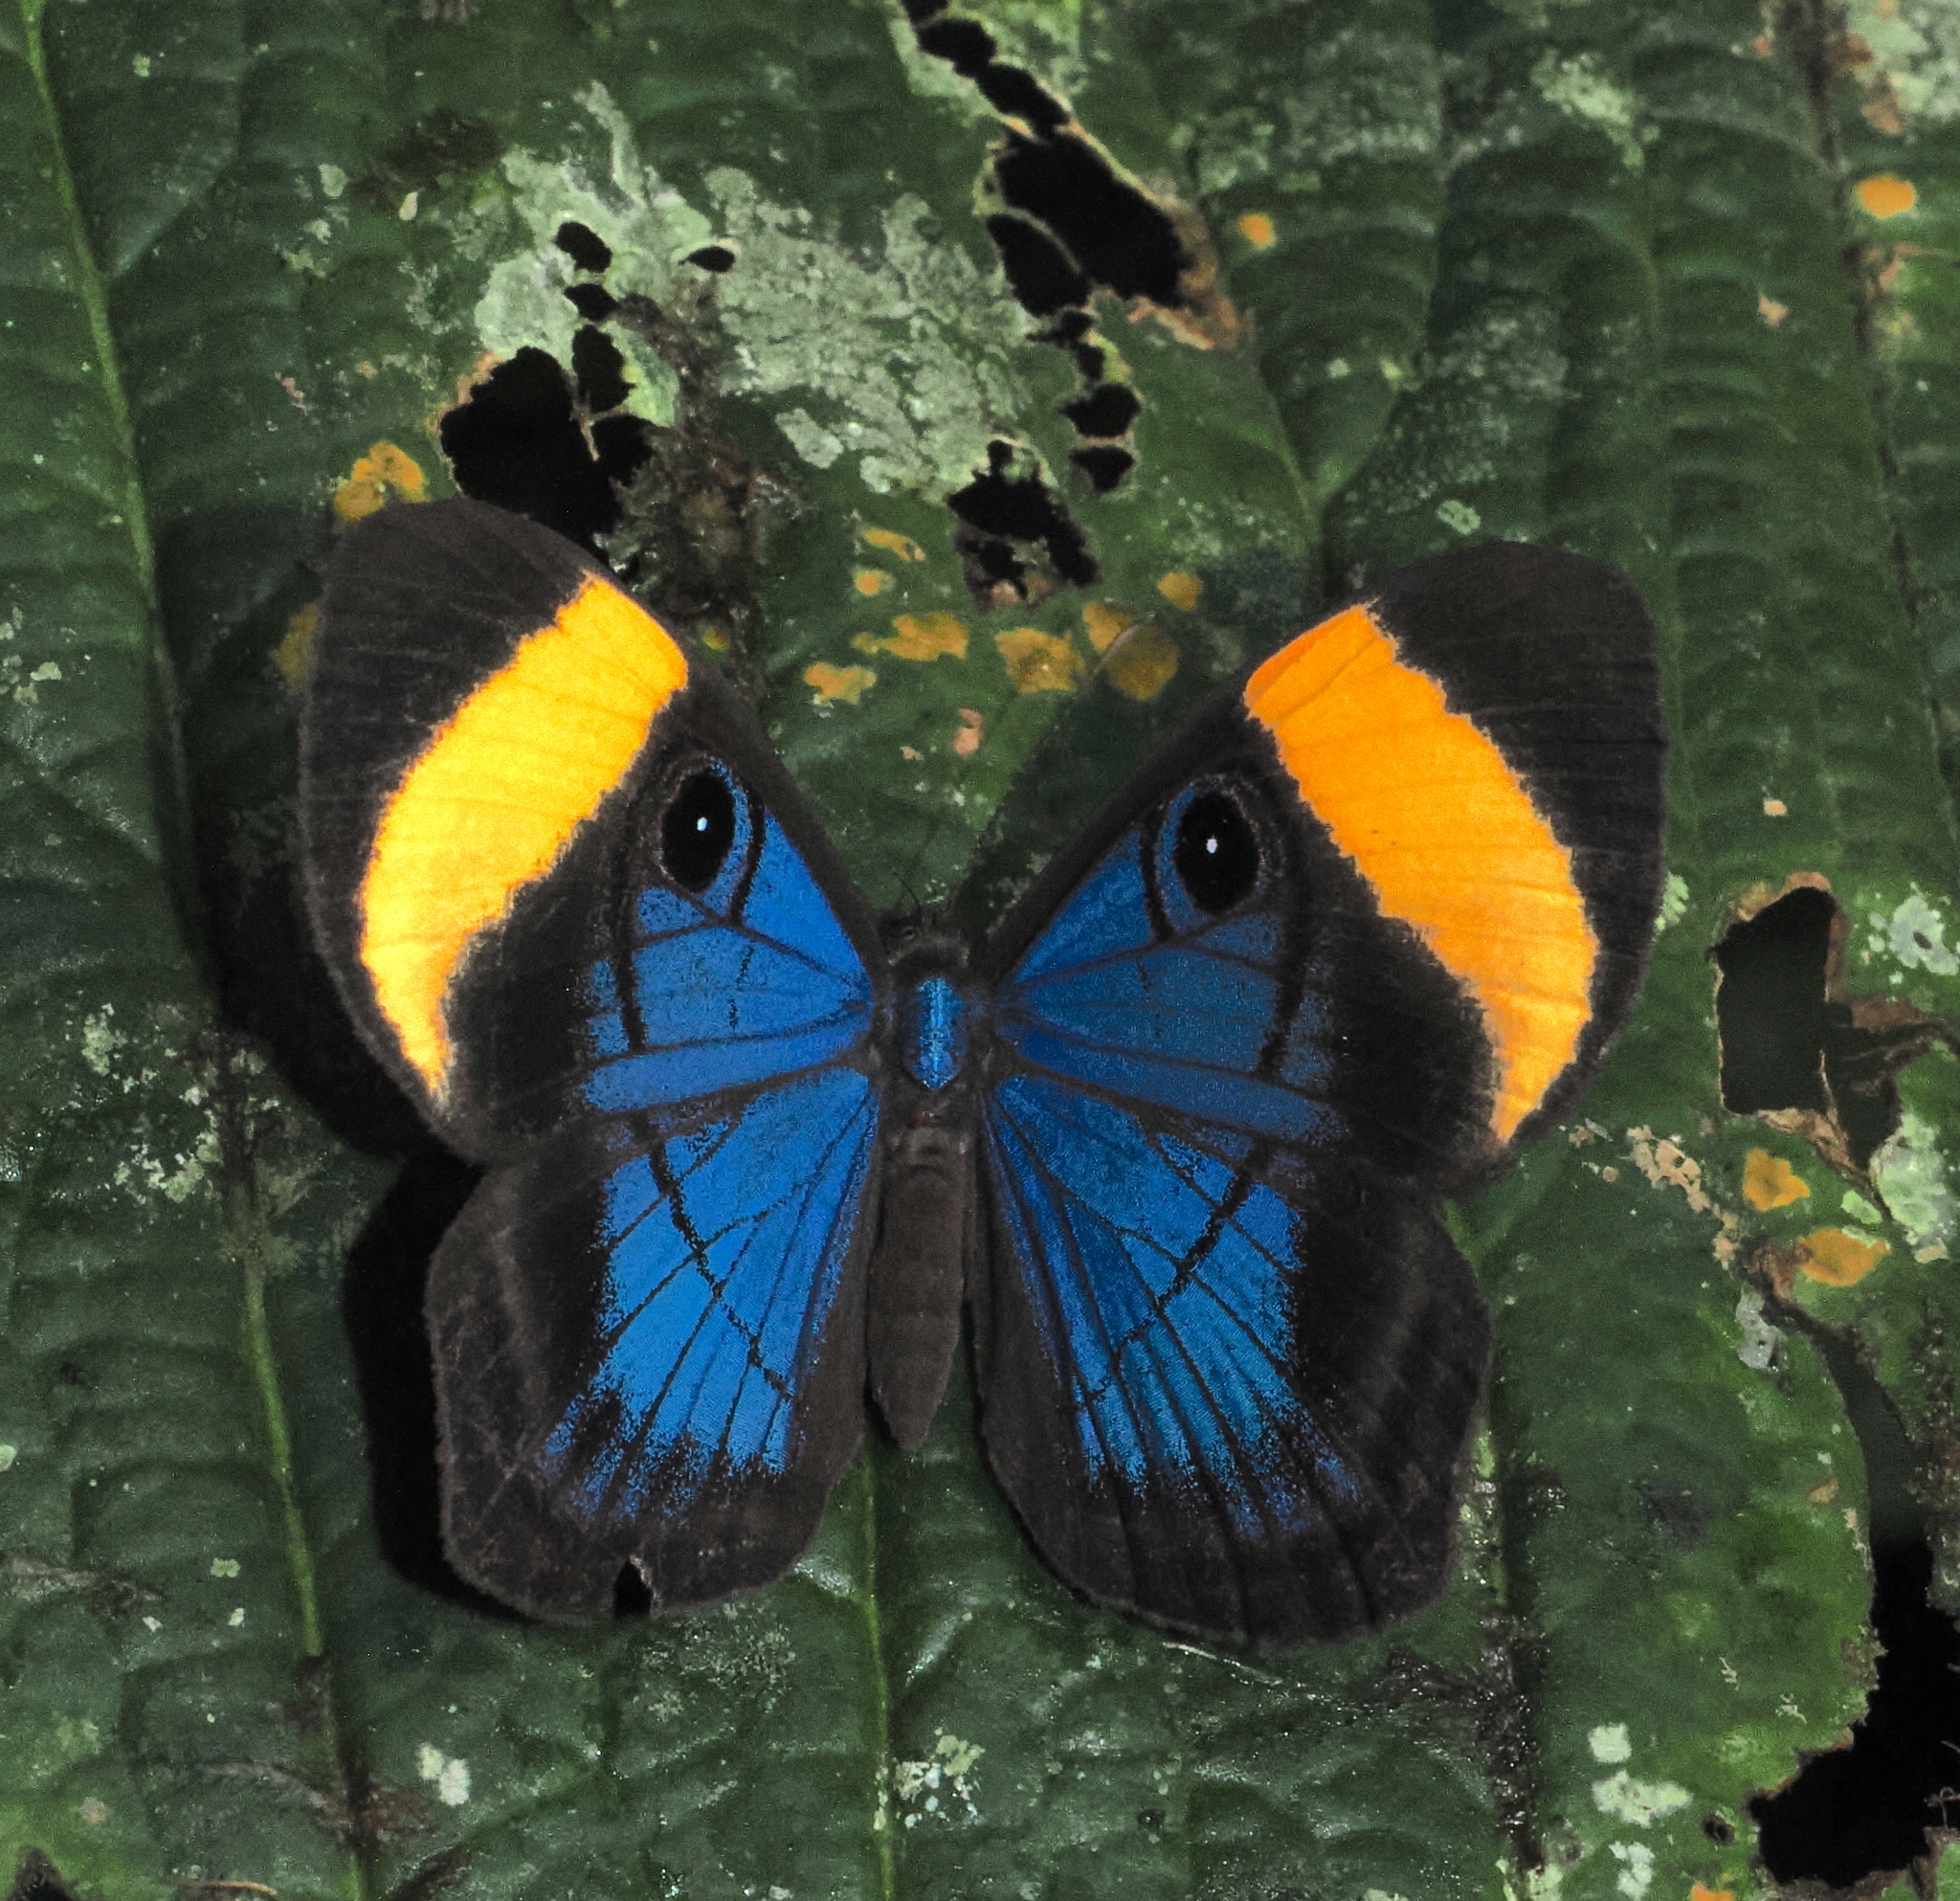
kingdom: Animalia
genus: Mesosemia
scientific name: Mesosemia mevania
